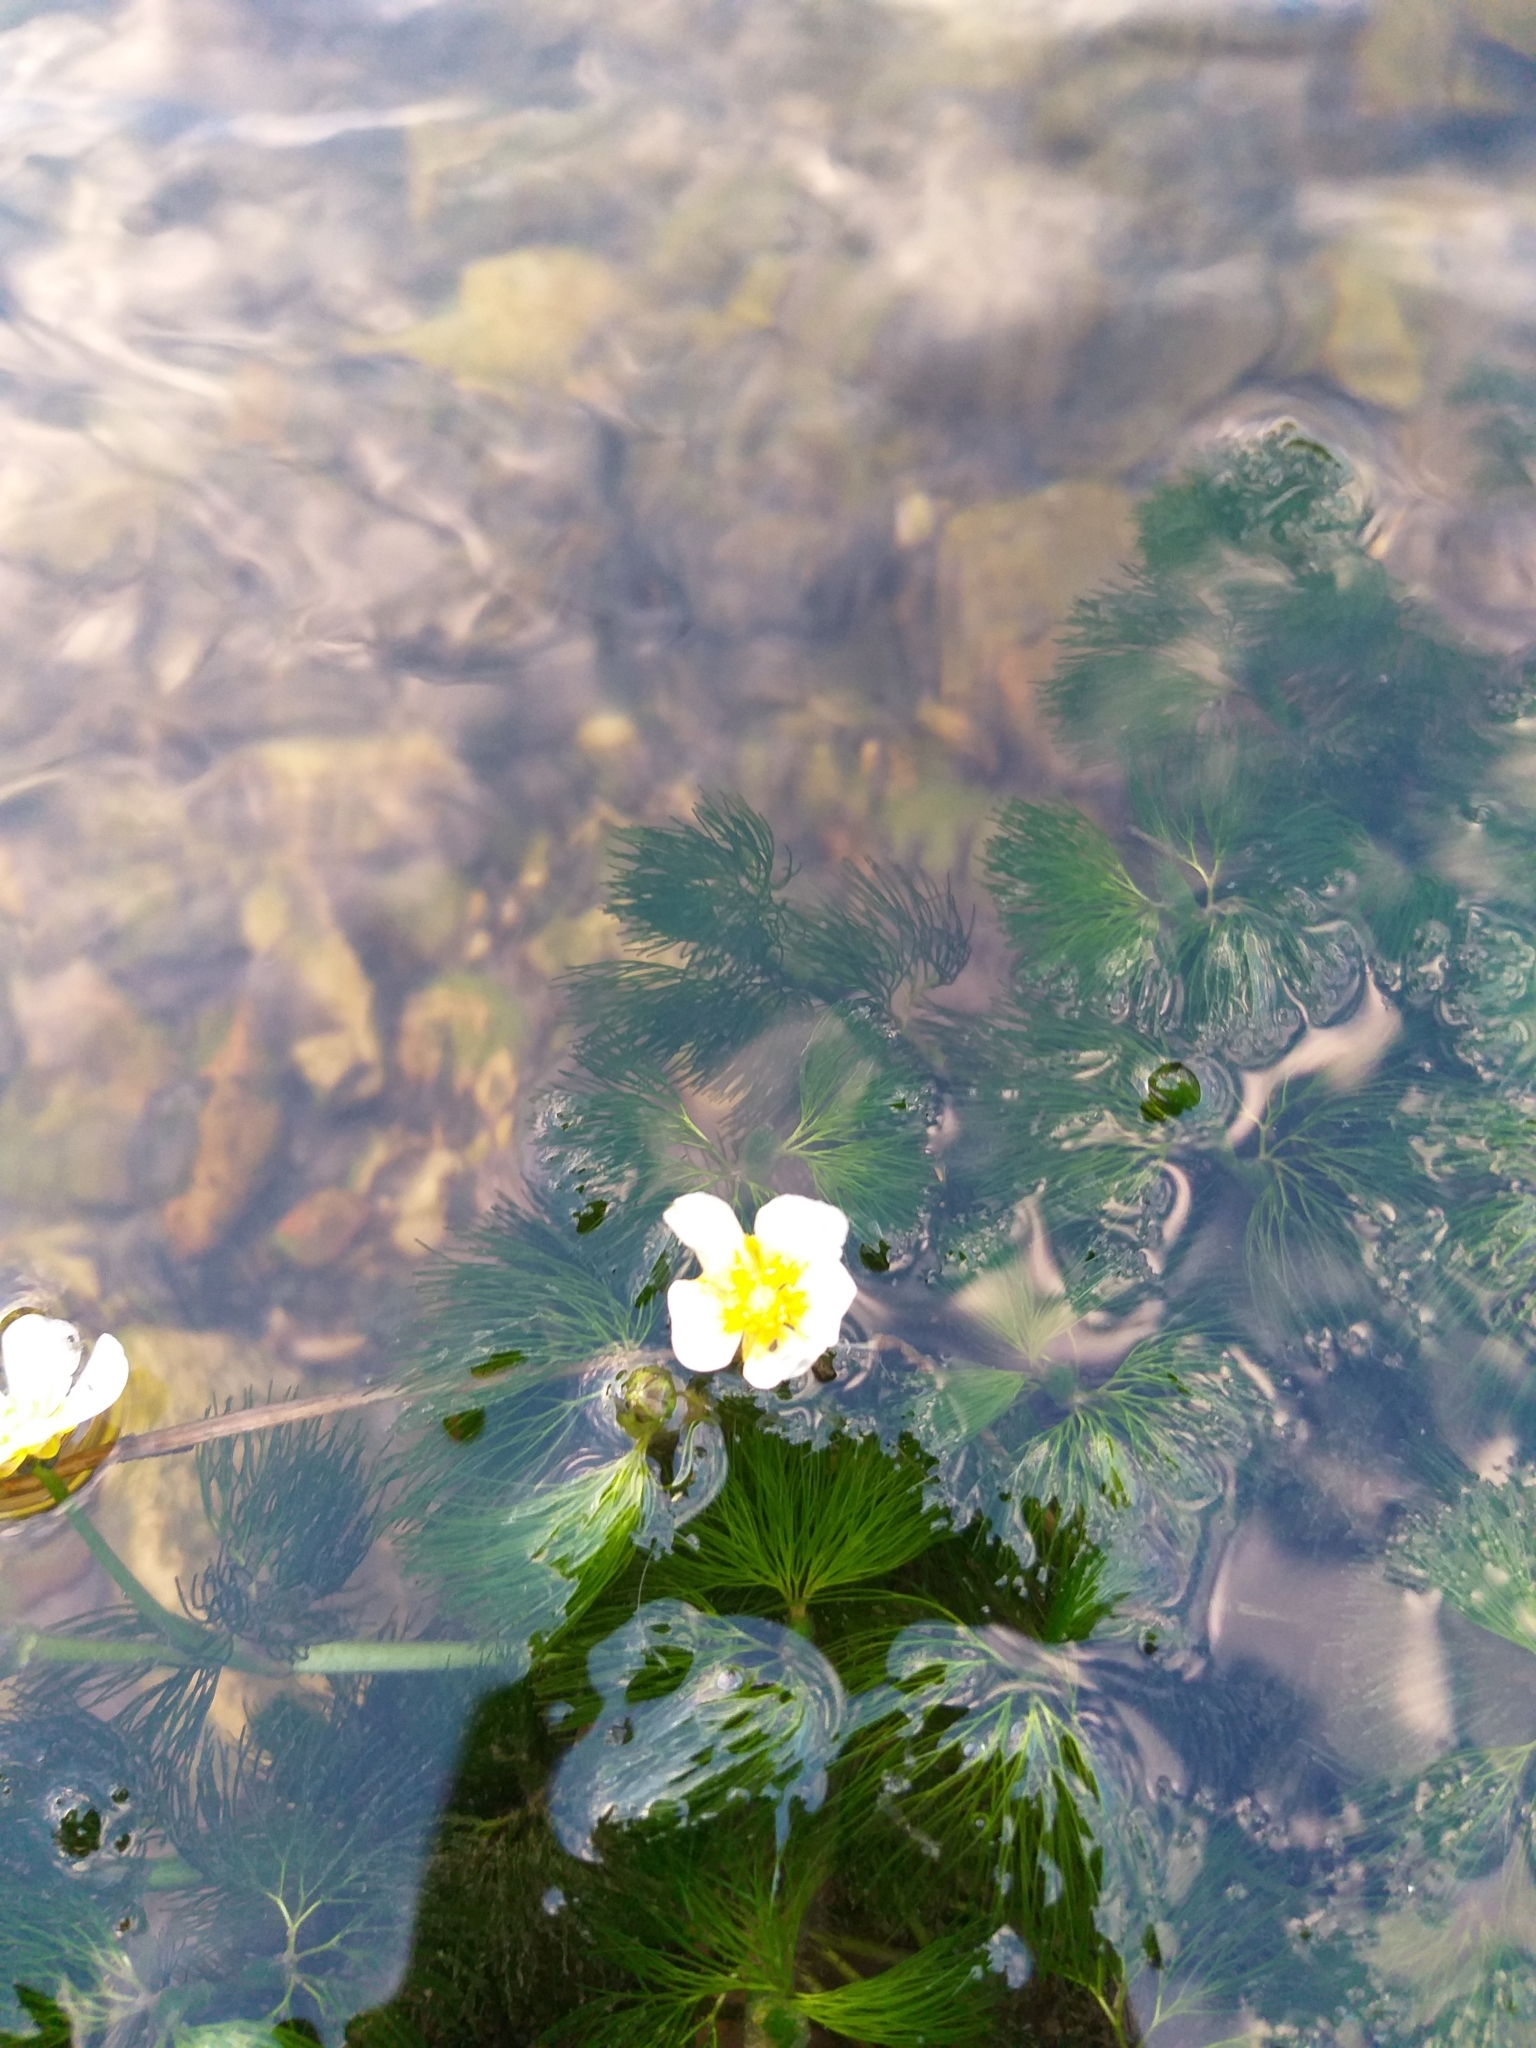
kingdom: Plantae
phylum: Tracheophyta
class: Magnoliopsida
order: Ranunculales
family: Ranunculaceae
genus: Ranunculus
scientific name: Ranunculus aquatilis
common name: Common water-crowfoot
